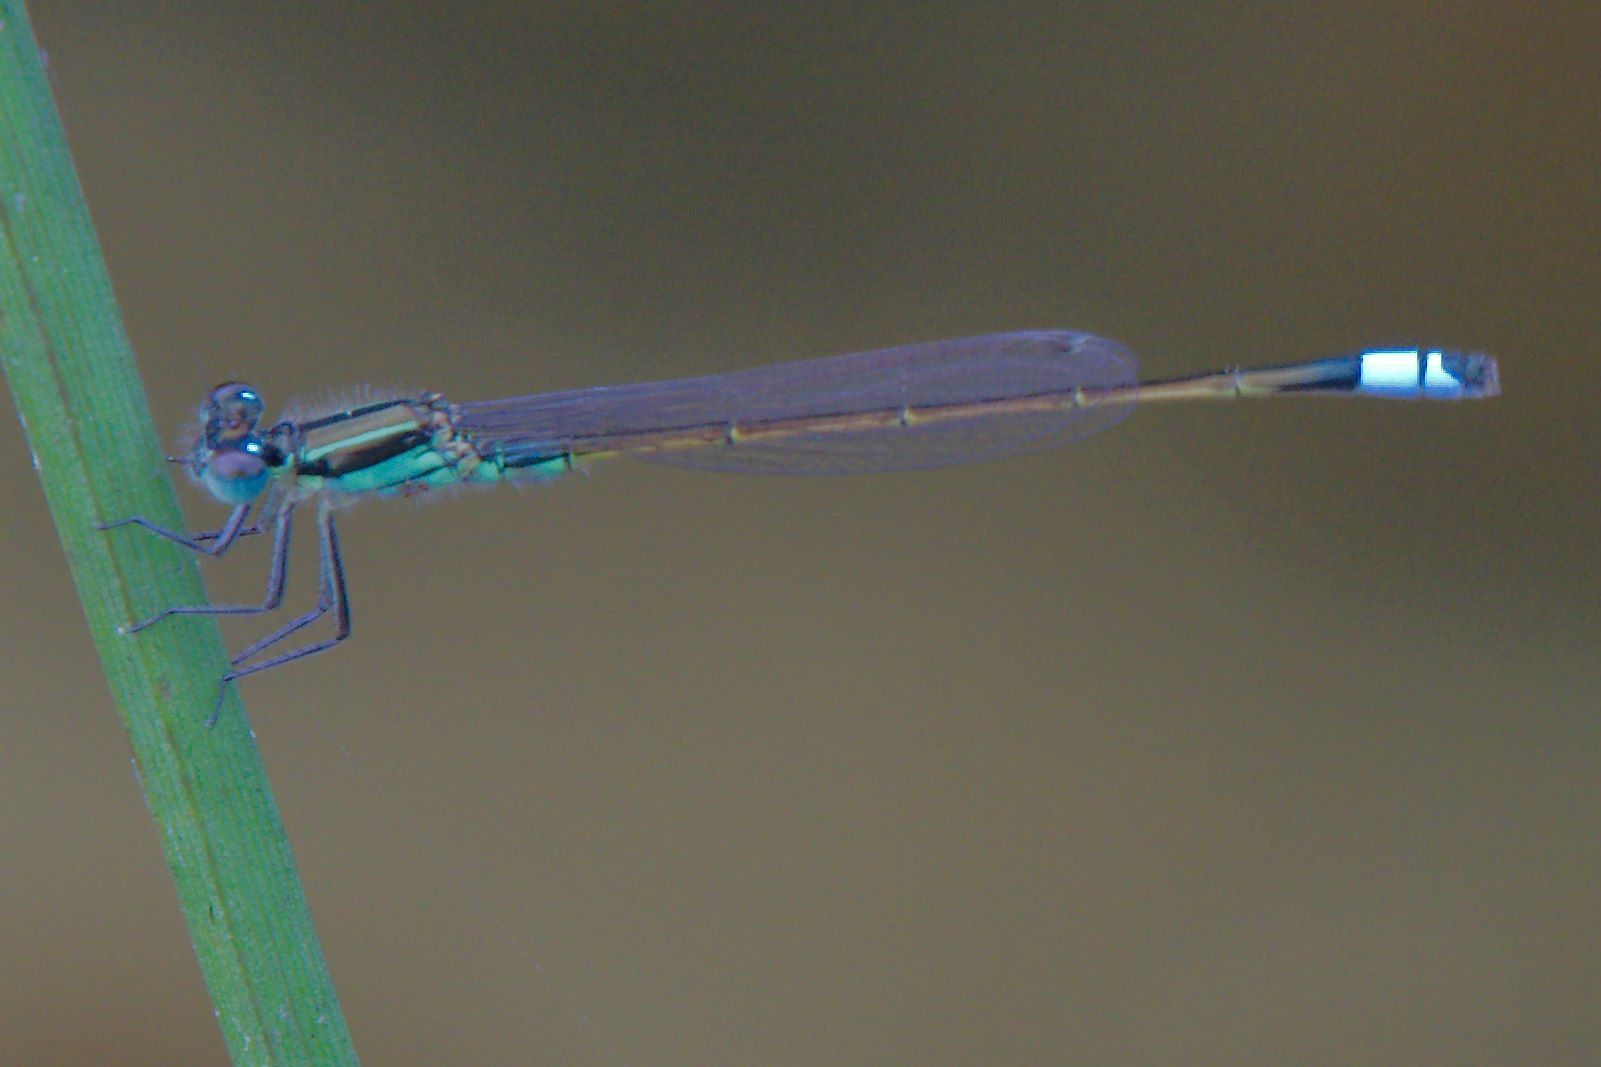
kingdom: Animalia
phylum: Arthropoda
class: Insecta
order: Odonata
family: Coenagrionidae
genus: Ischnura
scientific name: Ischnura ramburii
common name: Rambur's forktail
